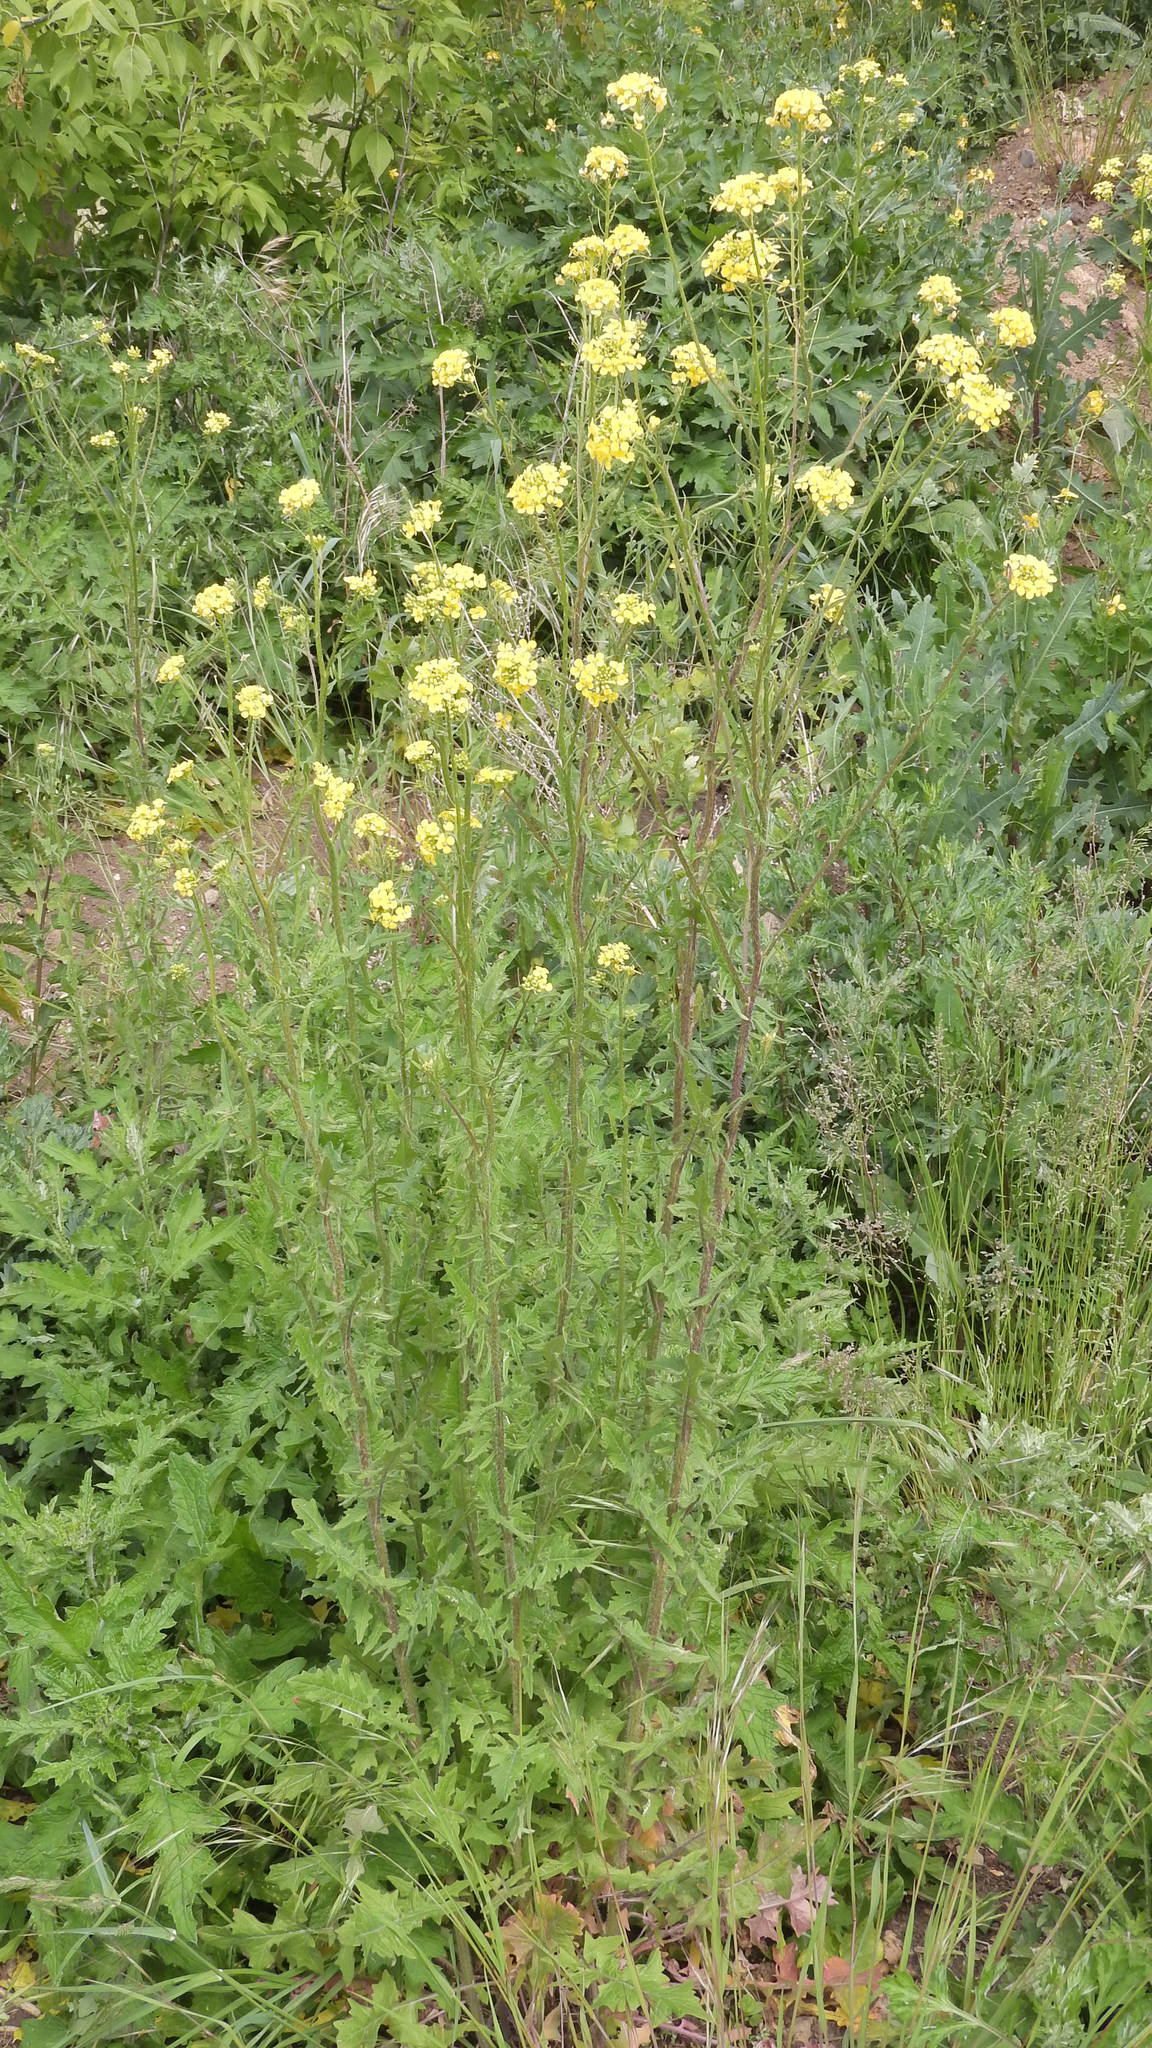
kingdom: Plantae
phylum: Tracheophyta
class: Magnoliopsida
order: Brassicales
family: Brassicaceae
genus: Sisymbrium
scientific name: Sisymbrium loeselii
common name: False london-rocket
